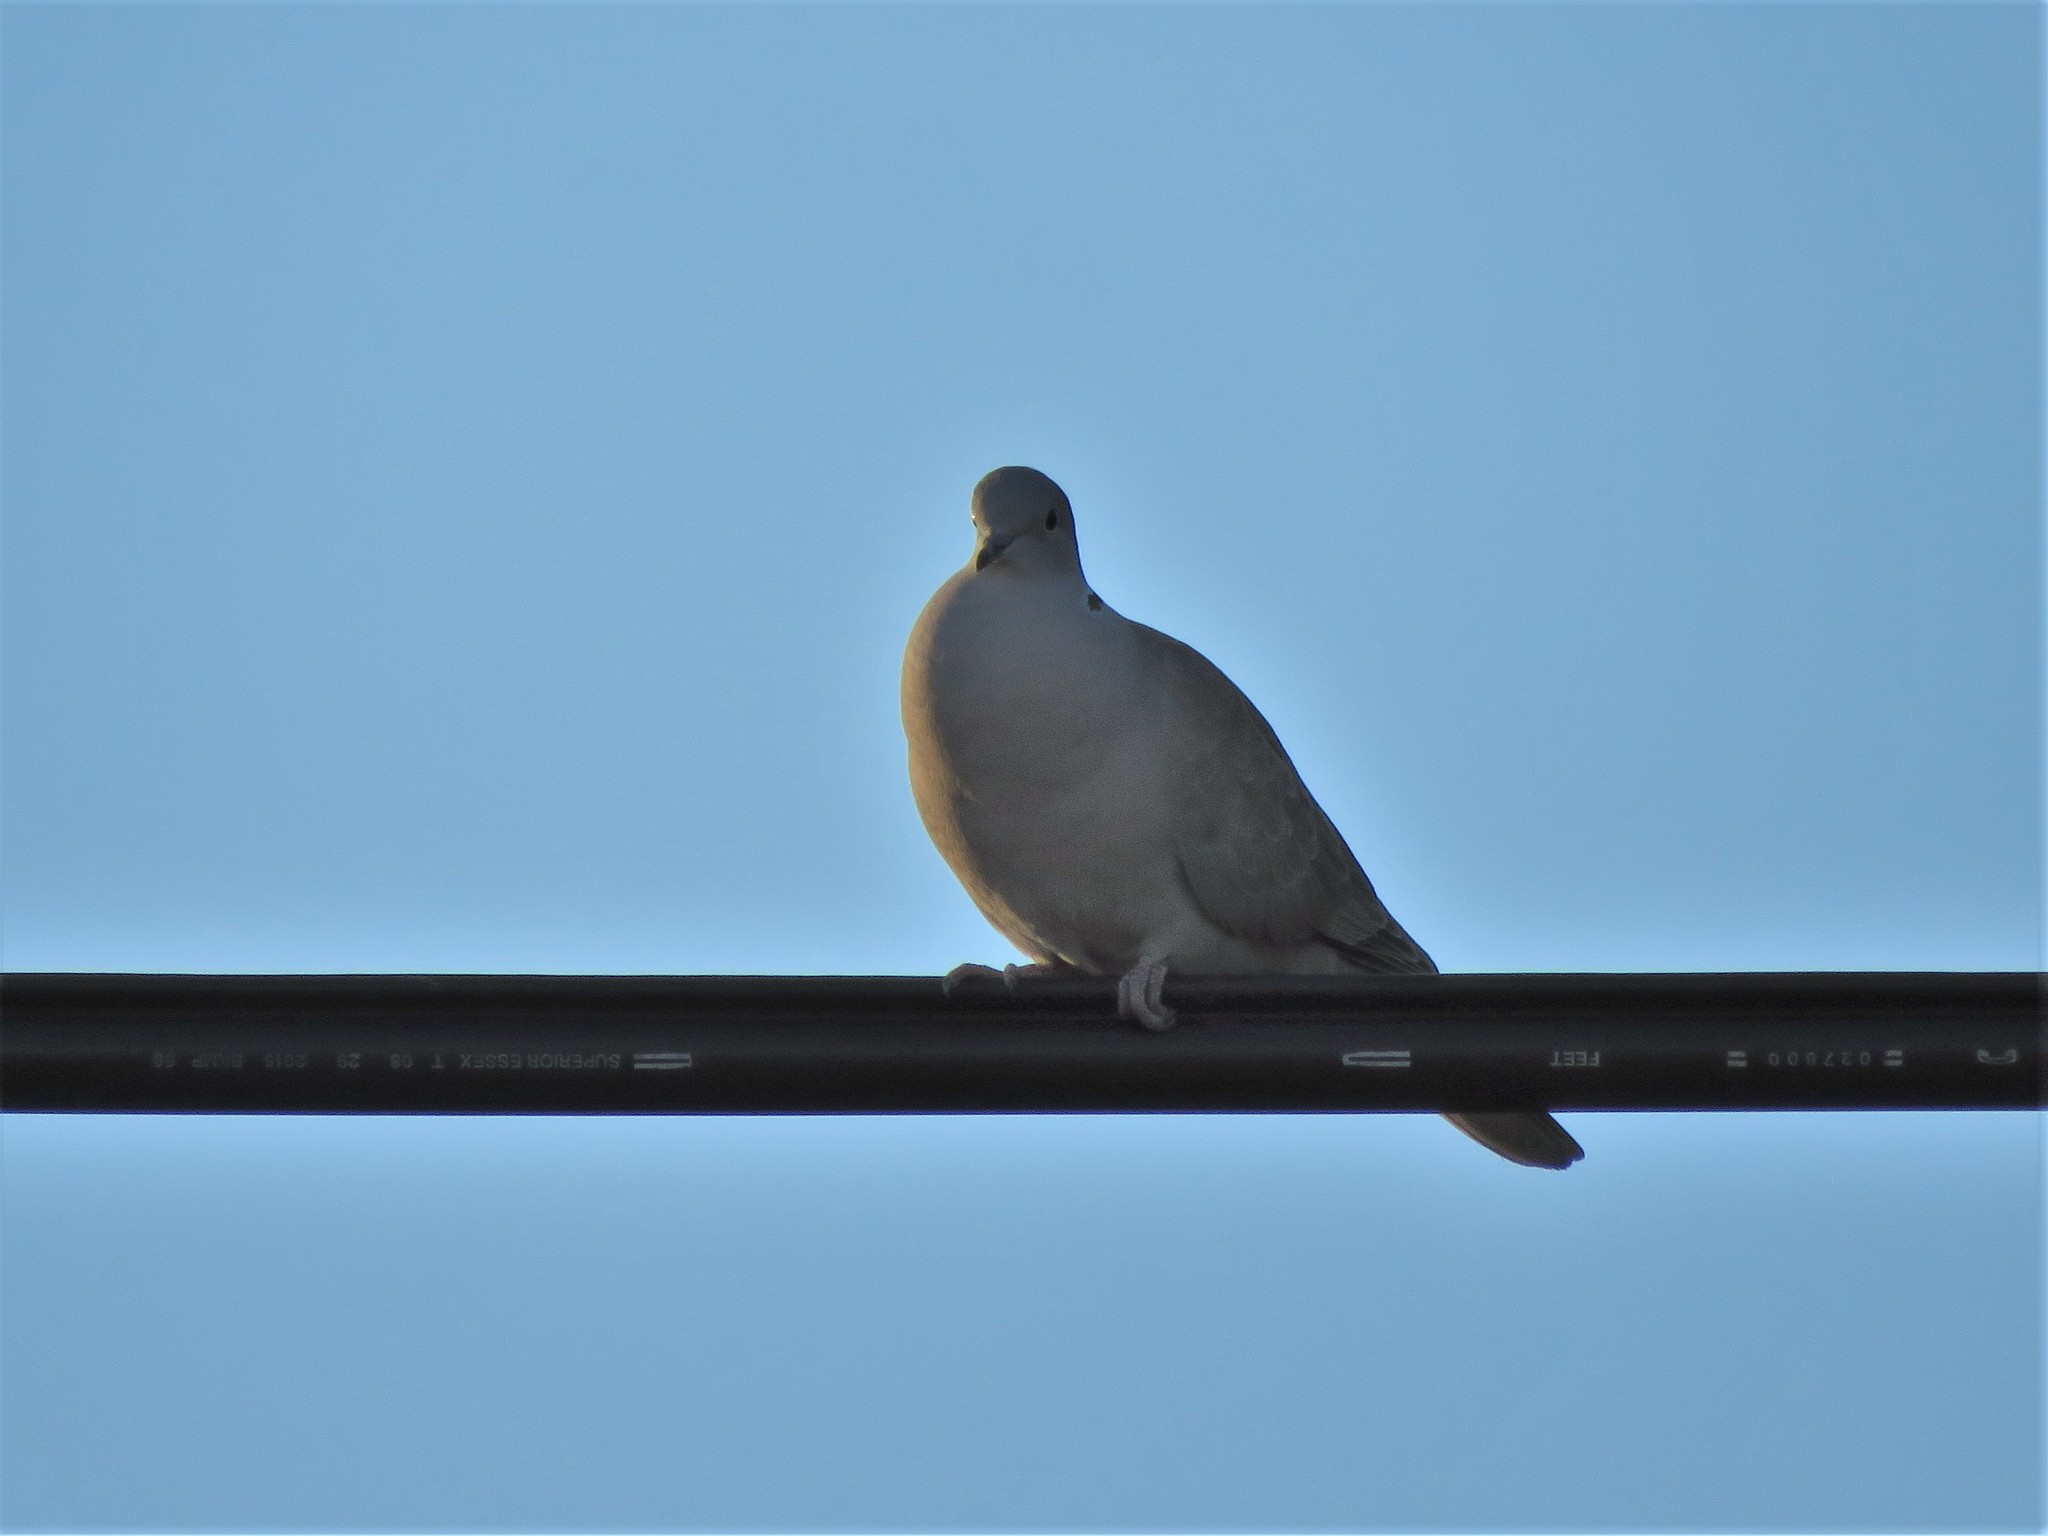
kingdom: Animalia
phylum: Chordata
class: Aves
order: Columbiformes
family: Columbidae
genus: Streptopelia
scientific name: Streptopelia decaocto
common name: Eurasian collared dove
